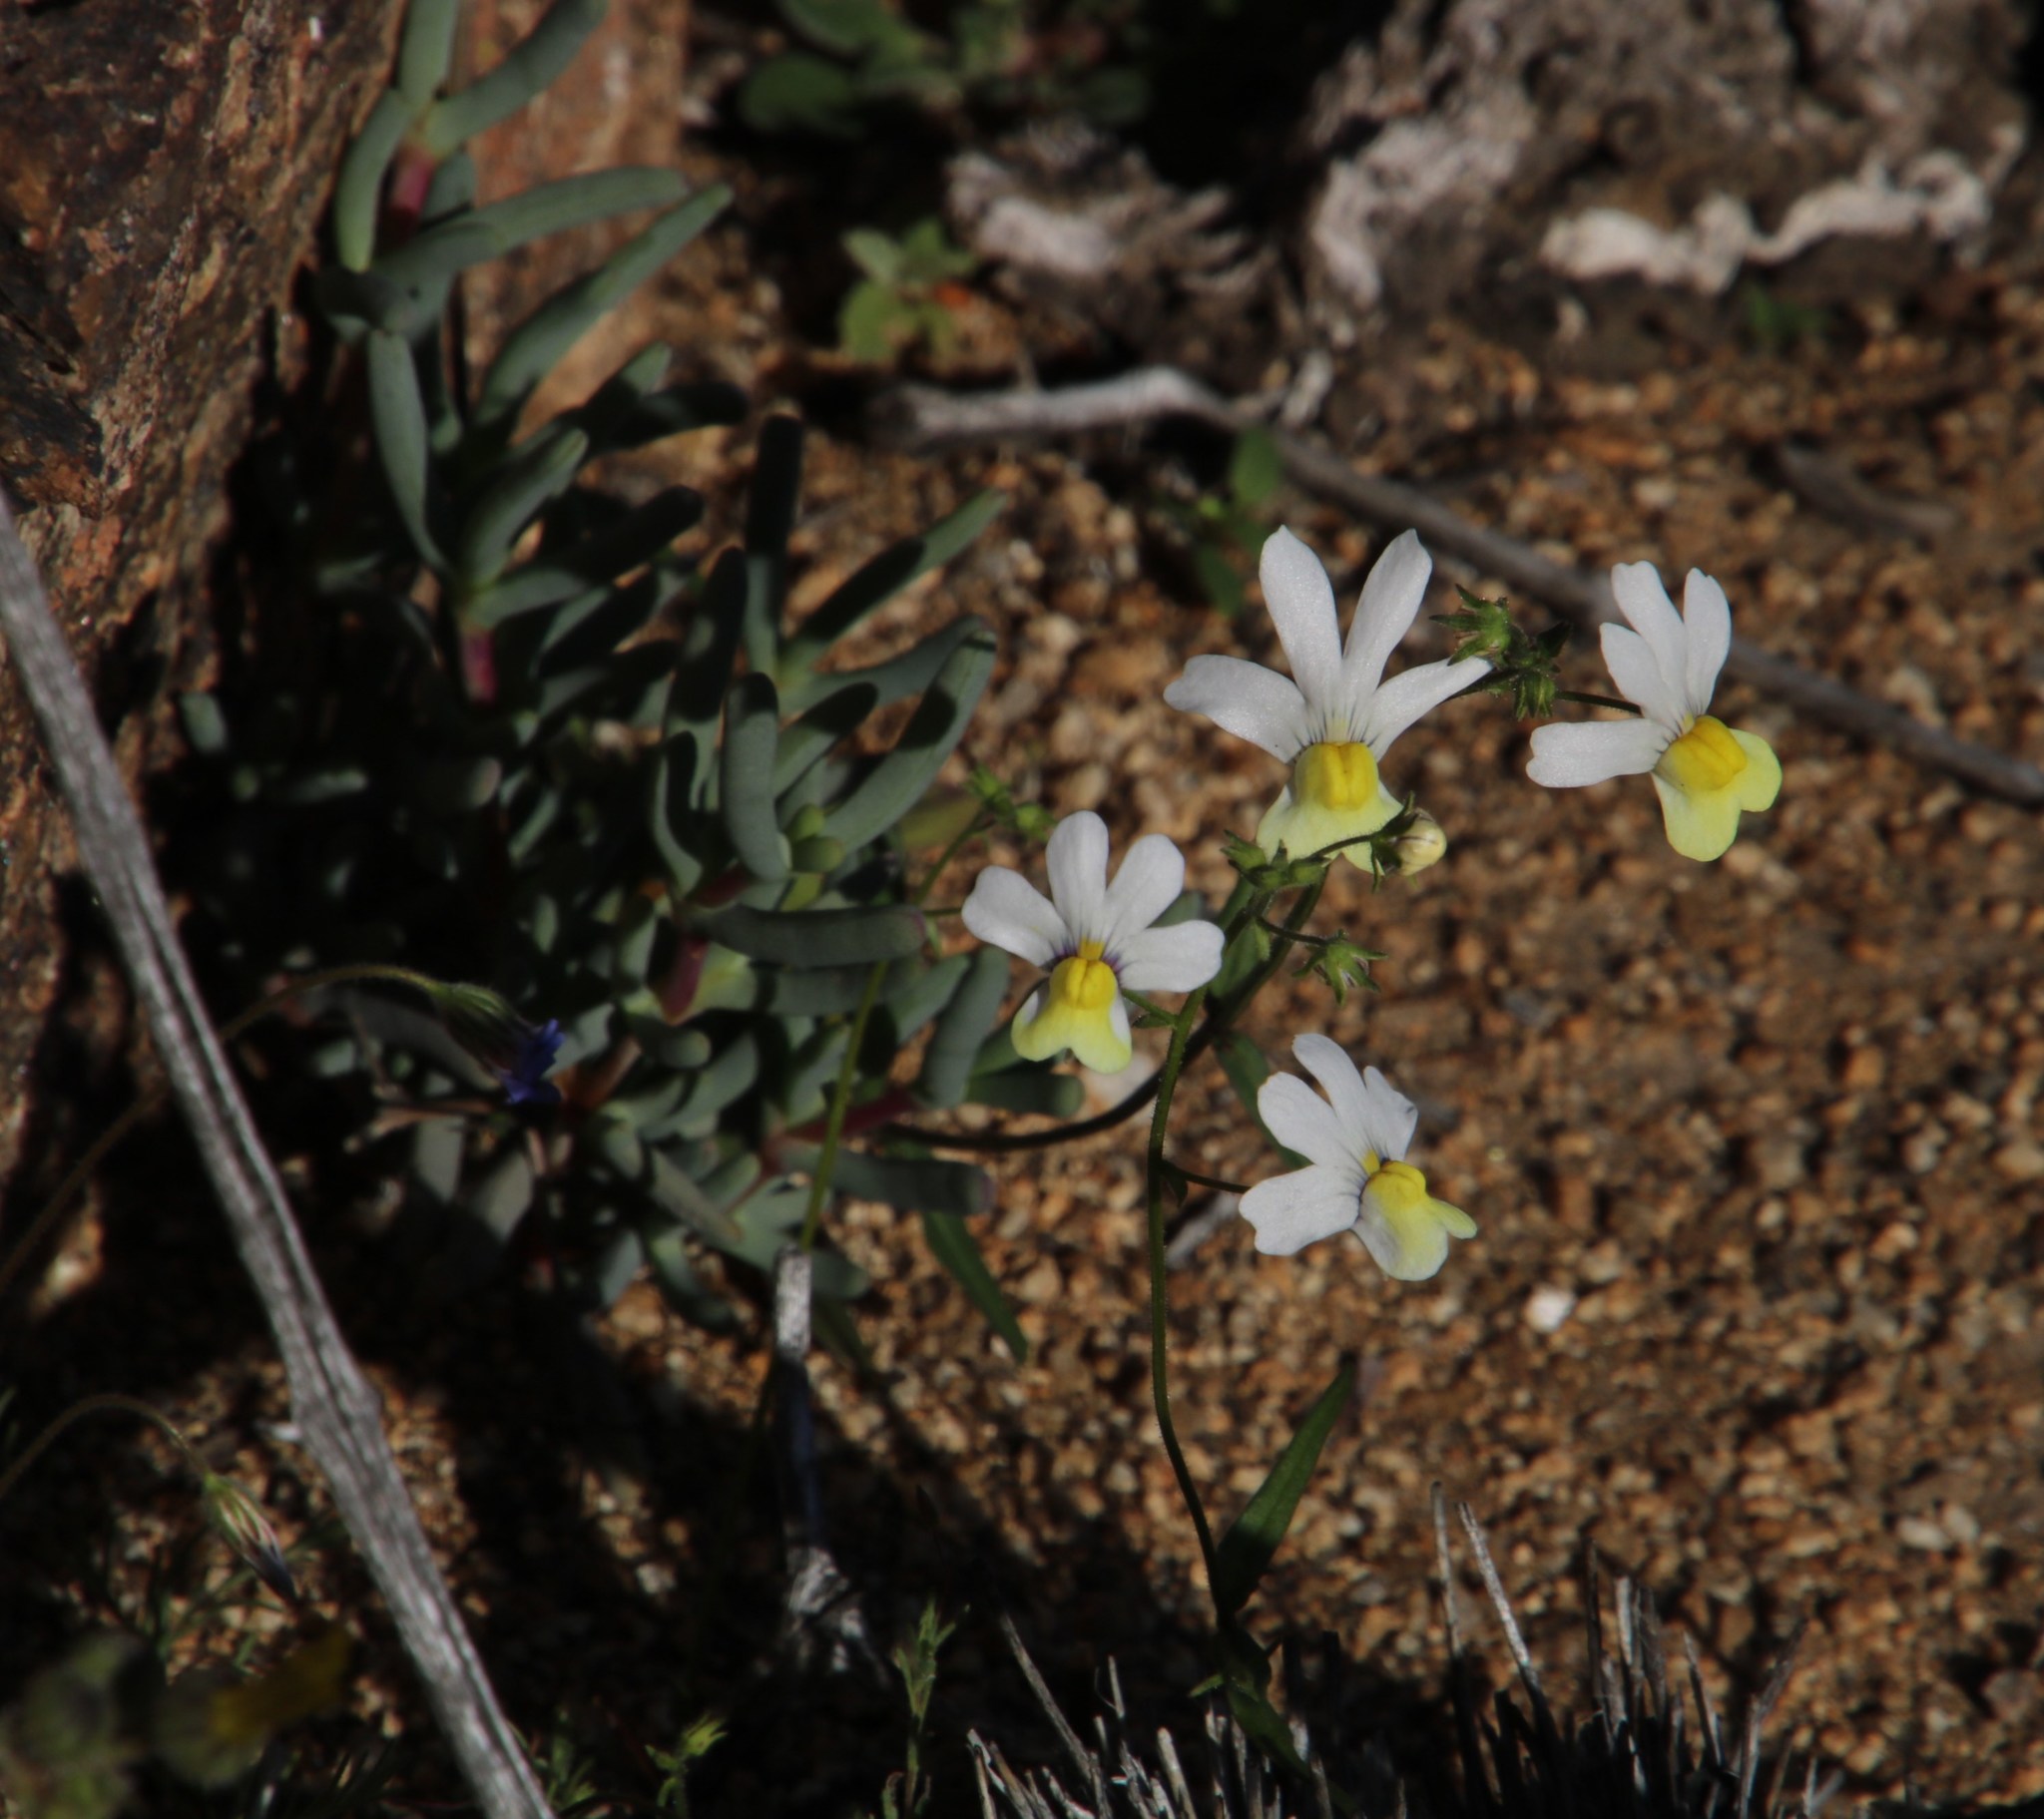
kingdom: Plantae
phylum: Tracheophyta
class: Magnoliopsida
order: Lamiales
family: Scrophulariaceae
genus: Nemesia
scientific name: Nemesia versicolor
